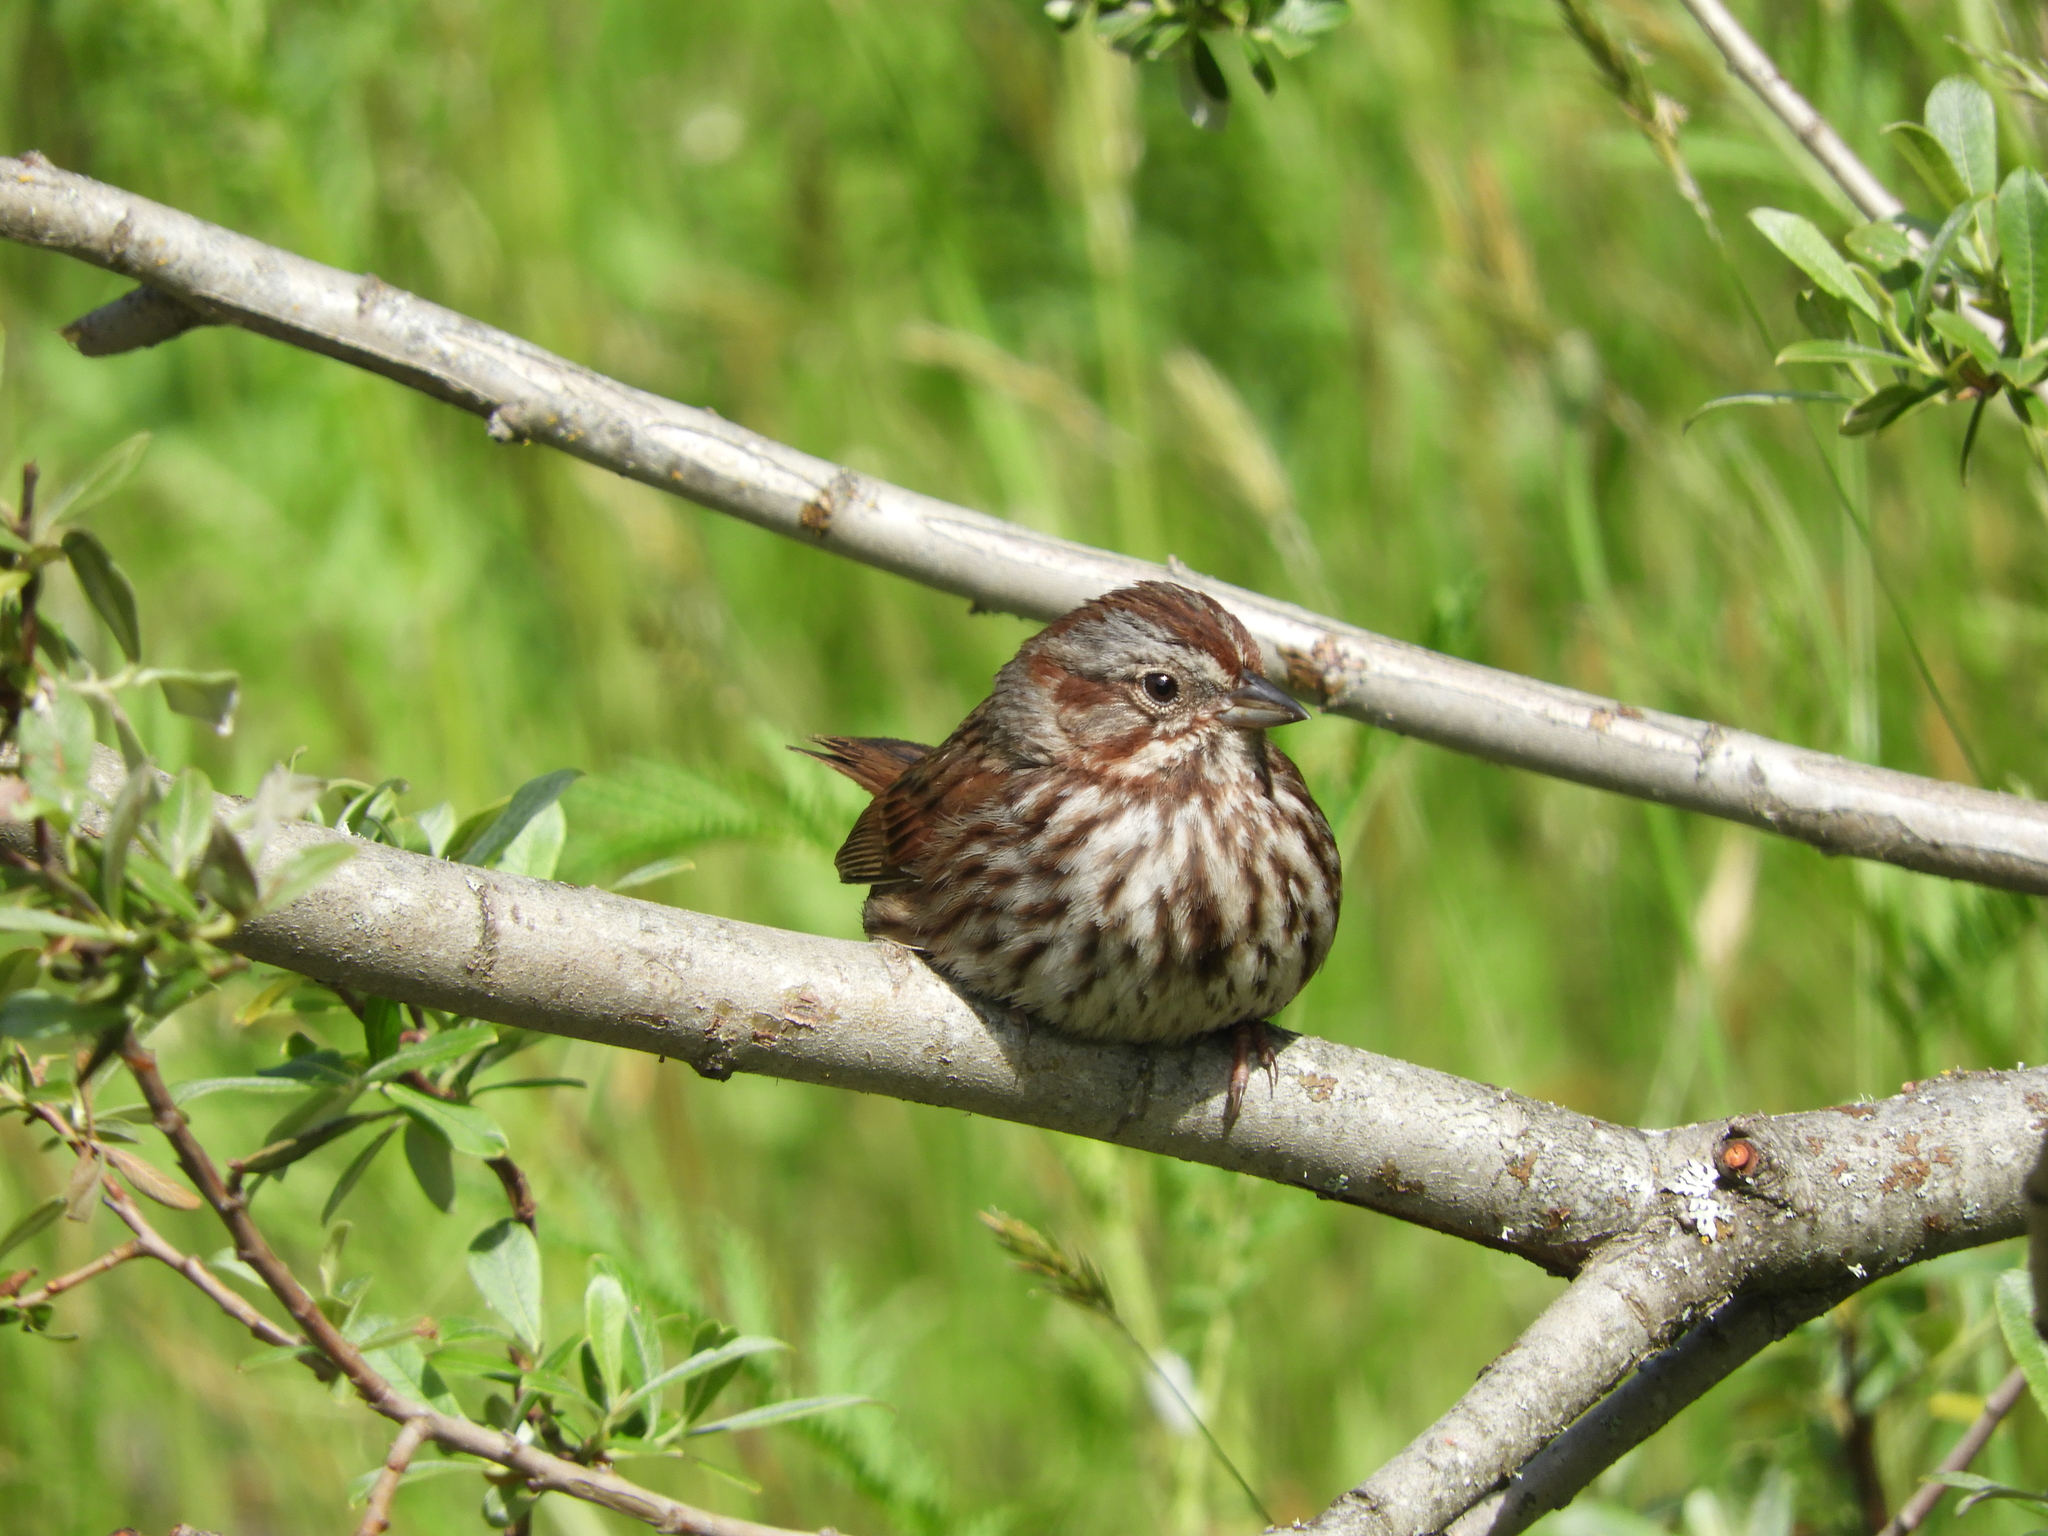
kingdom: Animalia
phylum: Chordata
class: Aves
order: Passeriformes
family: Passerellidae
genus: Melospiza
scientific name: Melospiza melodia
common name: Song sparrow
